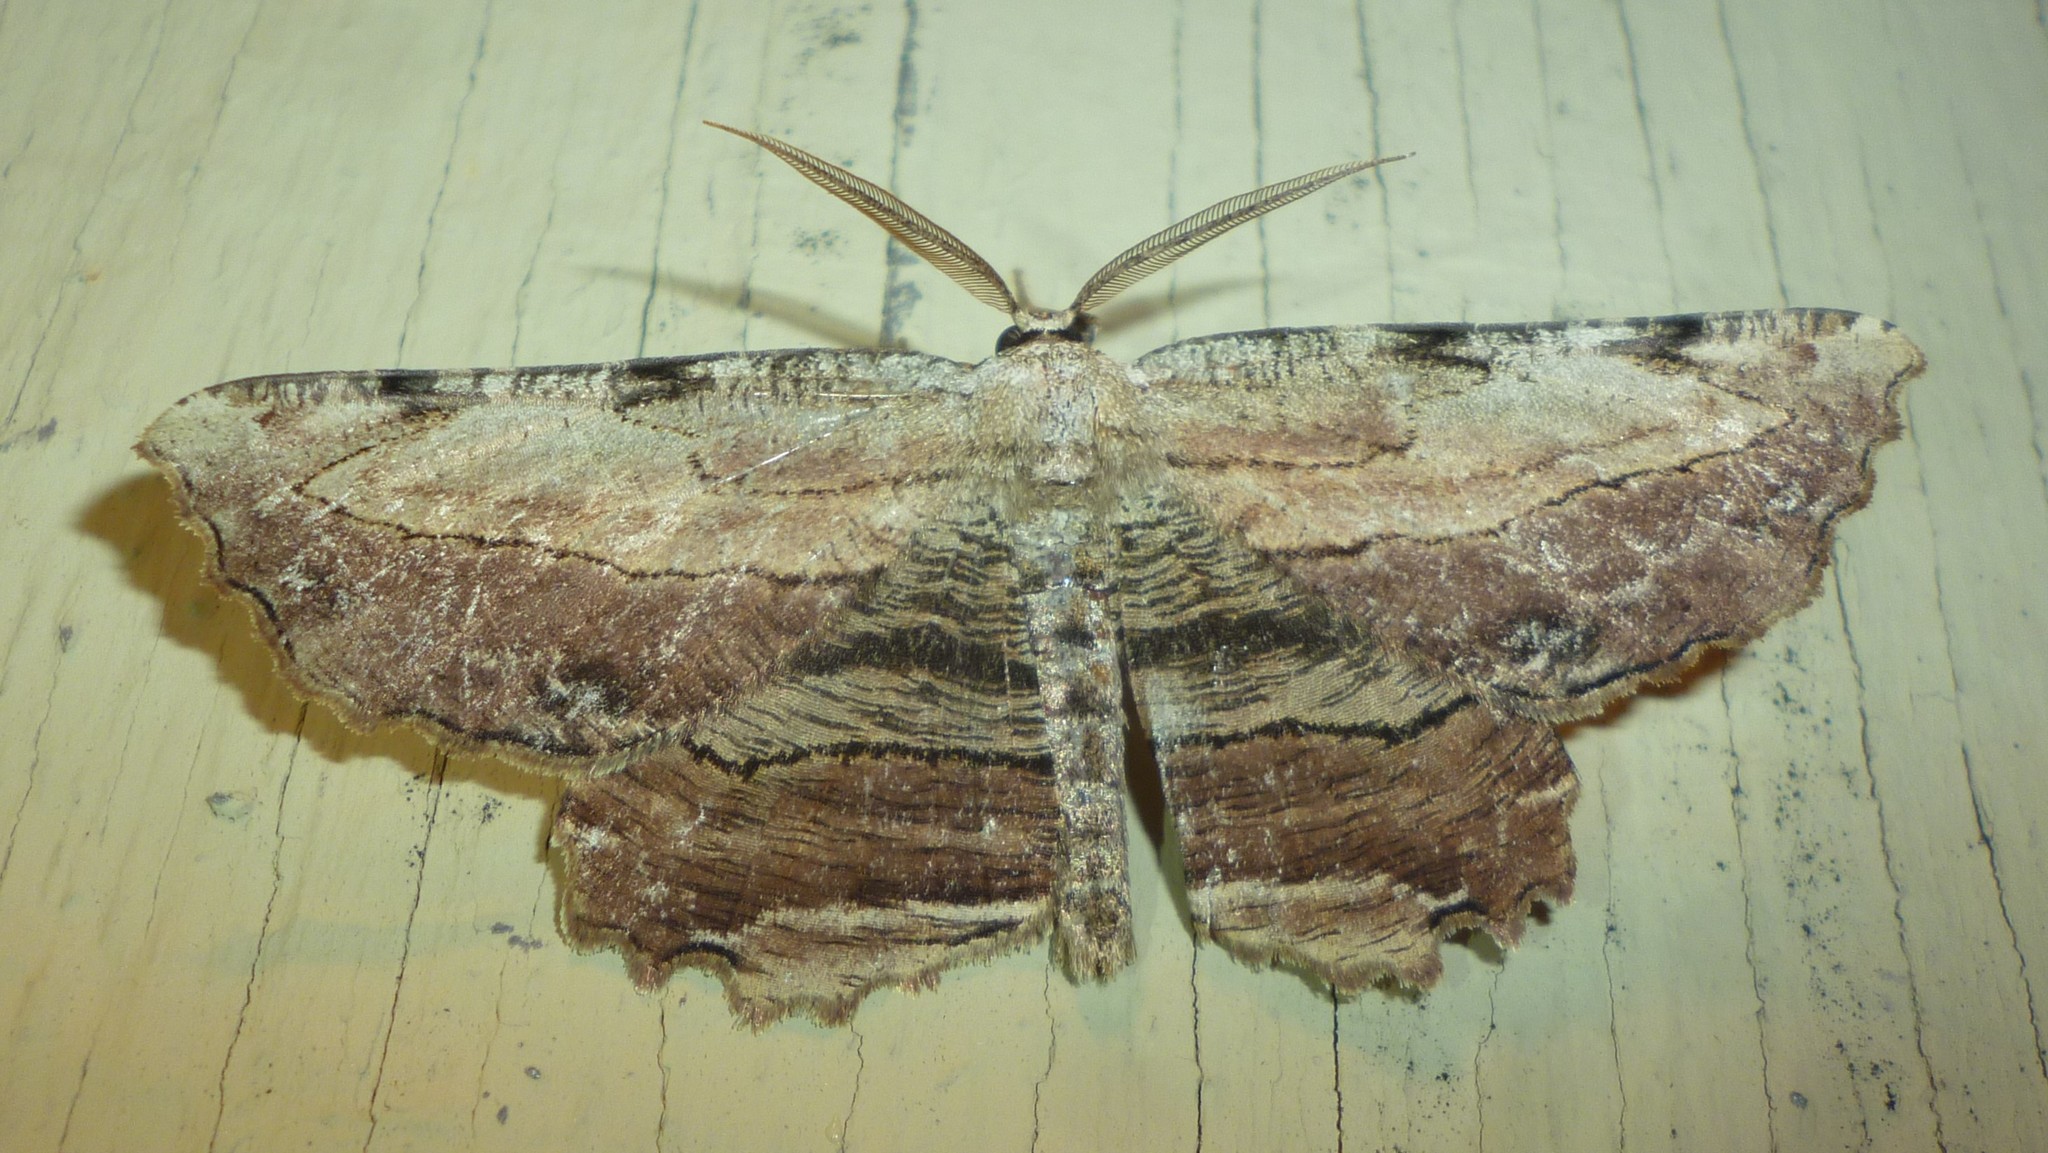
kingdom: Animalia
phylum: Arthropoda
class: Insecta
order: Lepidoptera
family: Geometridae
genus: Lytrosis
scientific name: Lytrosis unitaria
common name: Common lytrosis
